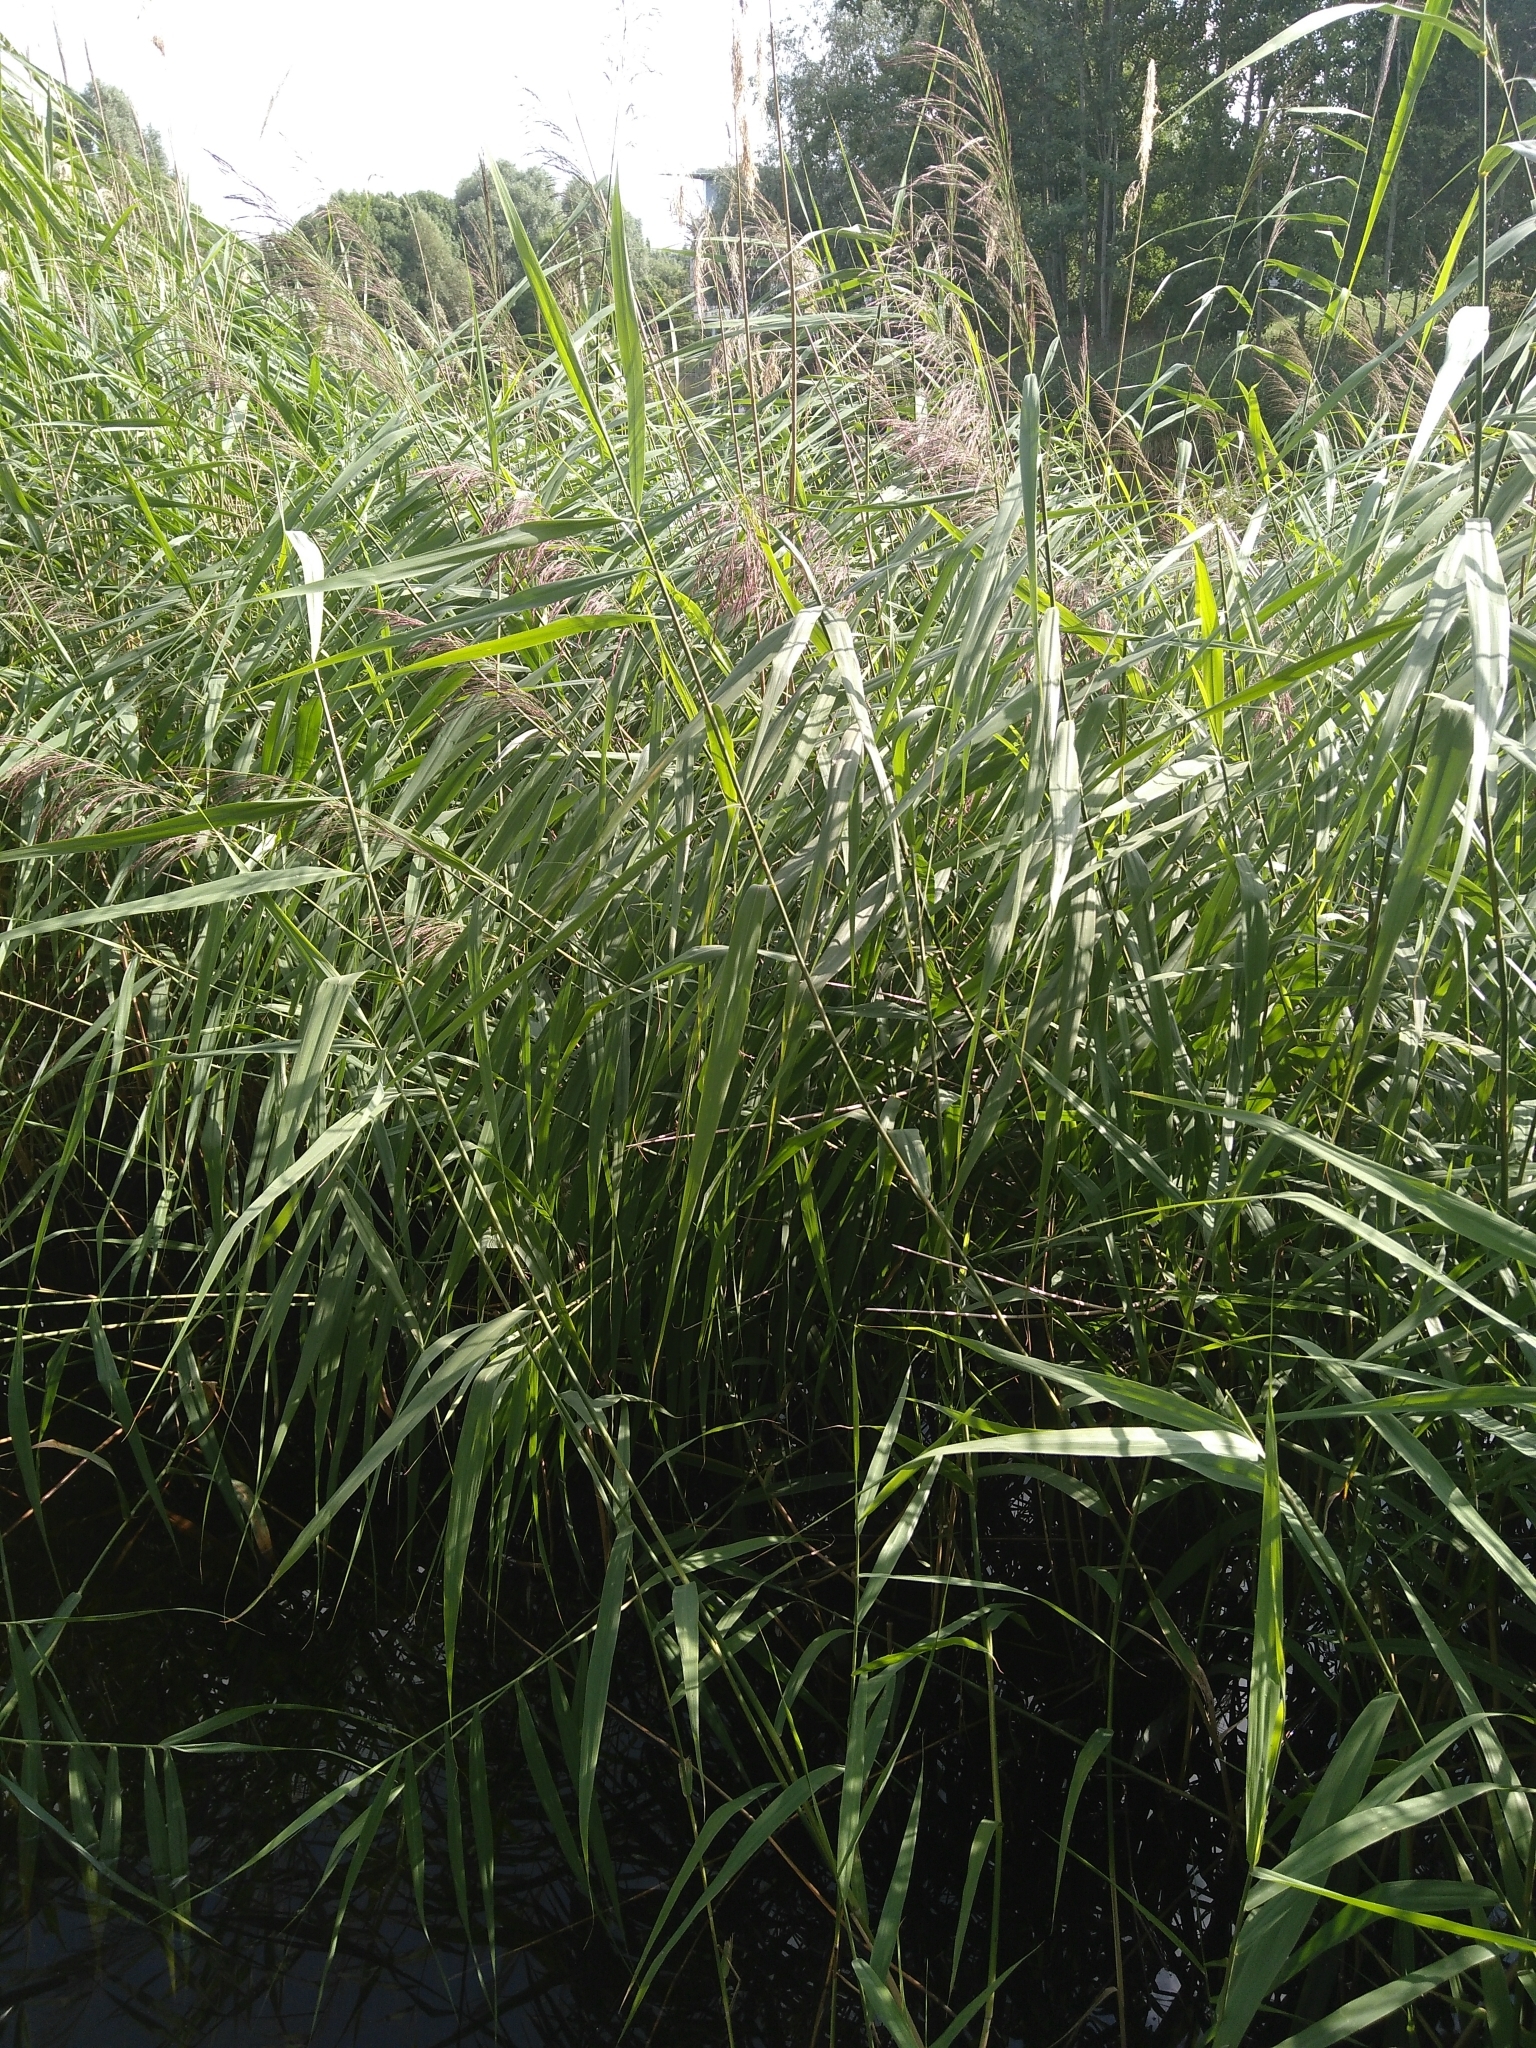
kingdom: Plantae
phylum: Tracheophyta
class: Liliopsida
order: Poales
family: Poaceae
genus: Phragmites
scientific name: Phragmites australis
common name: Common reed
